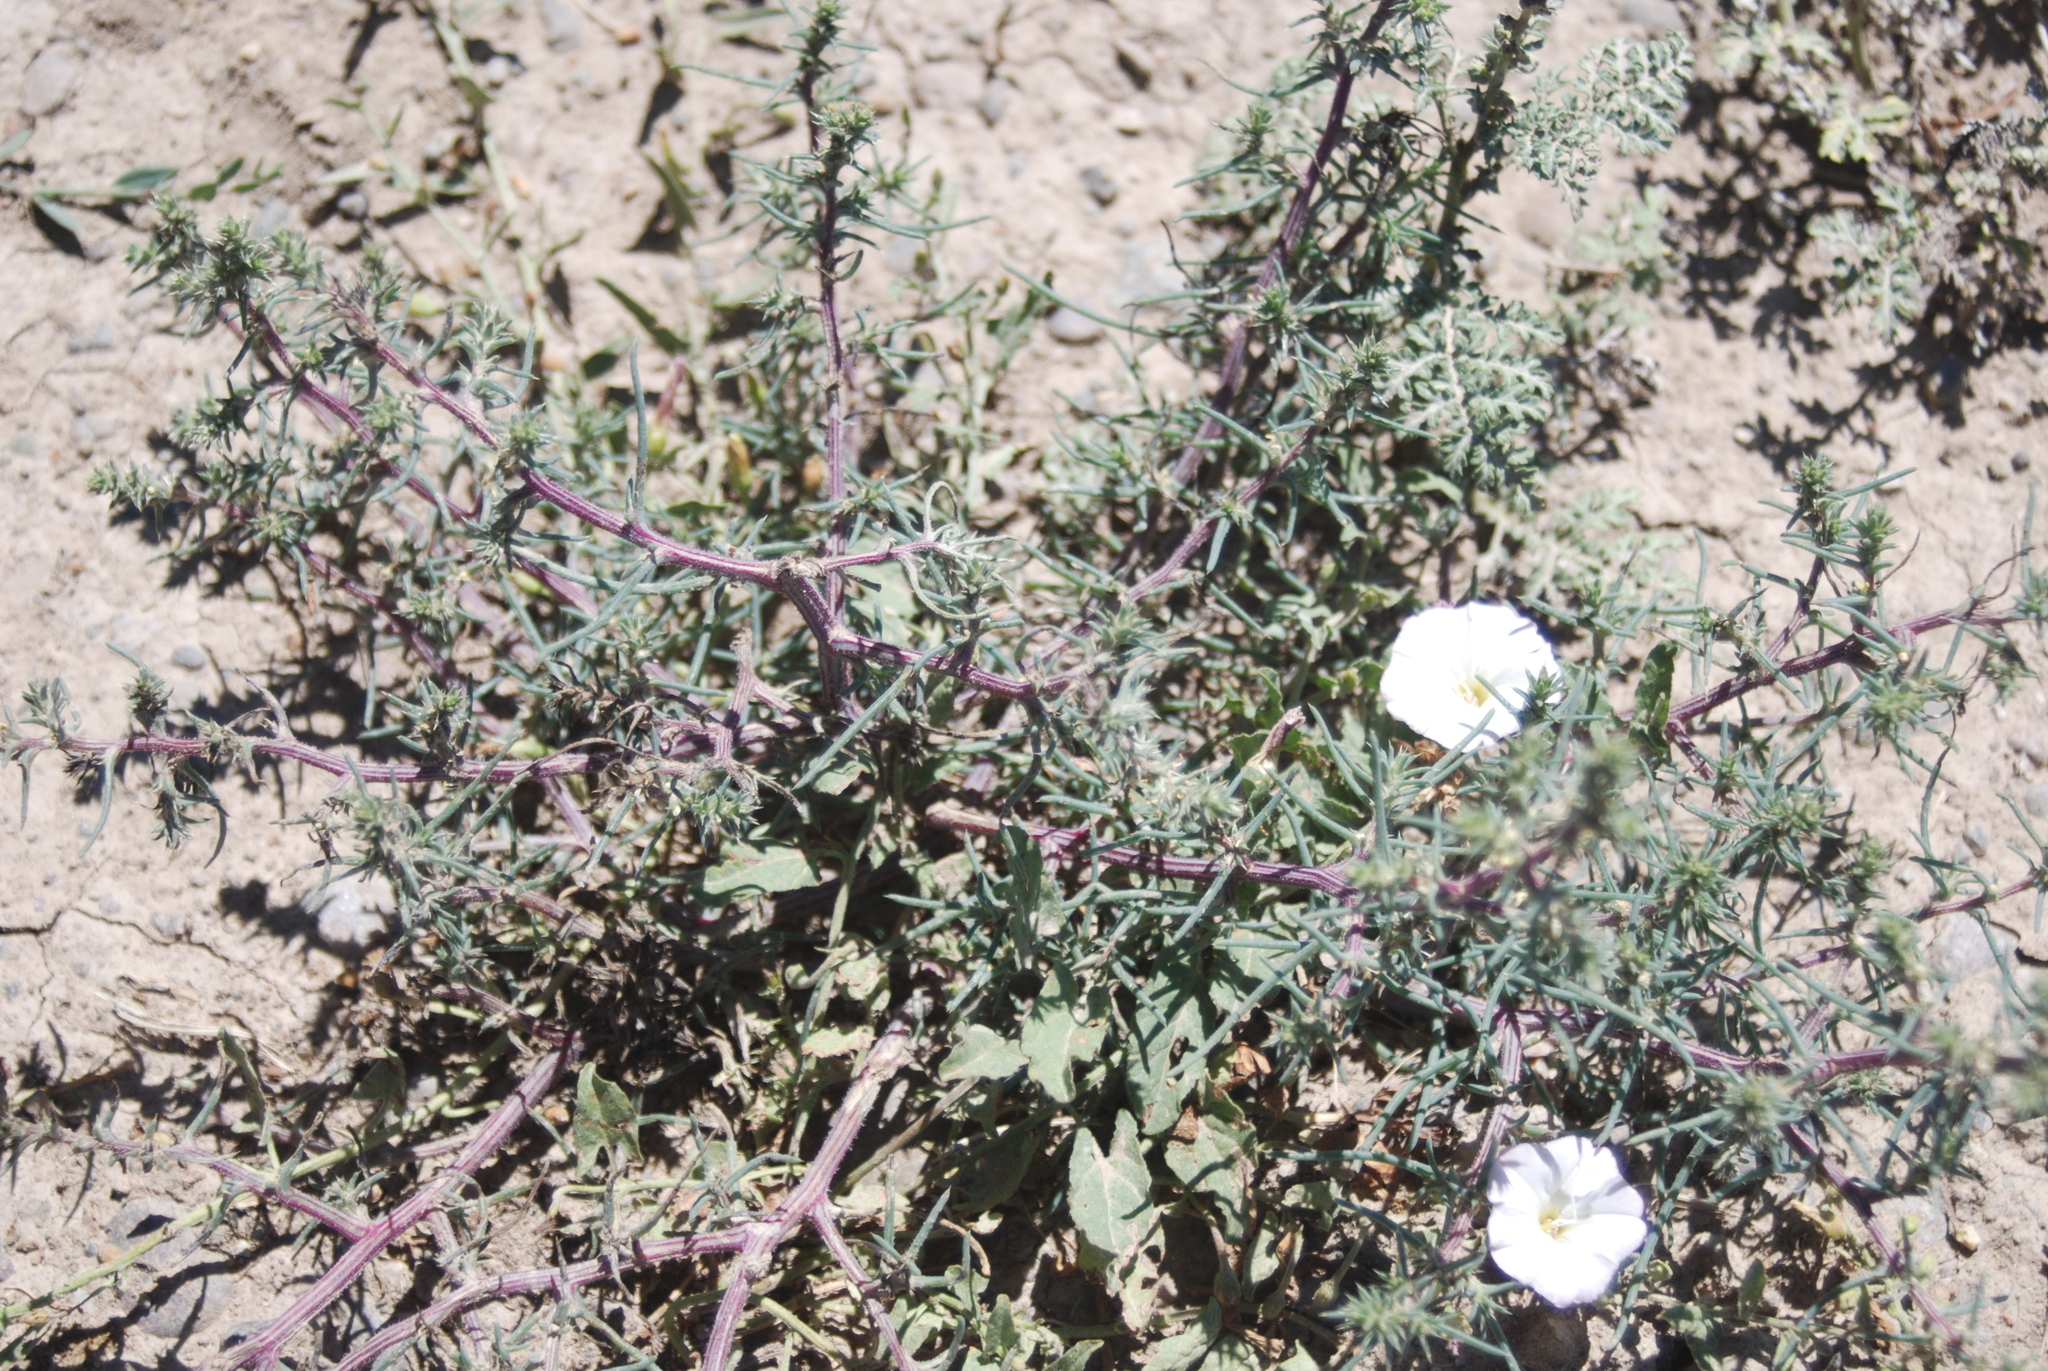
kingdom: Plantae
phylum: Tracheophyta
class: Magnoliopsida
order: Solanales
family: Convolvulaceae
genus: Convolvulus
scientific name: Convolvulus arvensis
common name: Field bindweed
